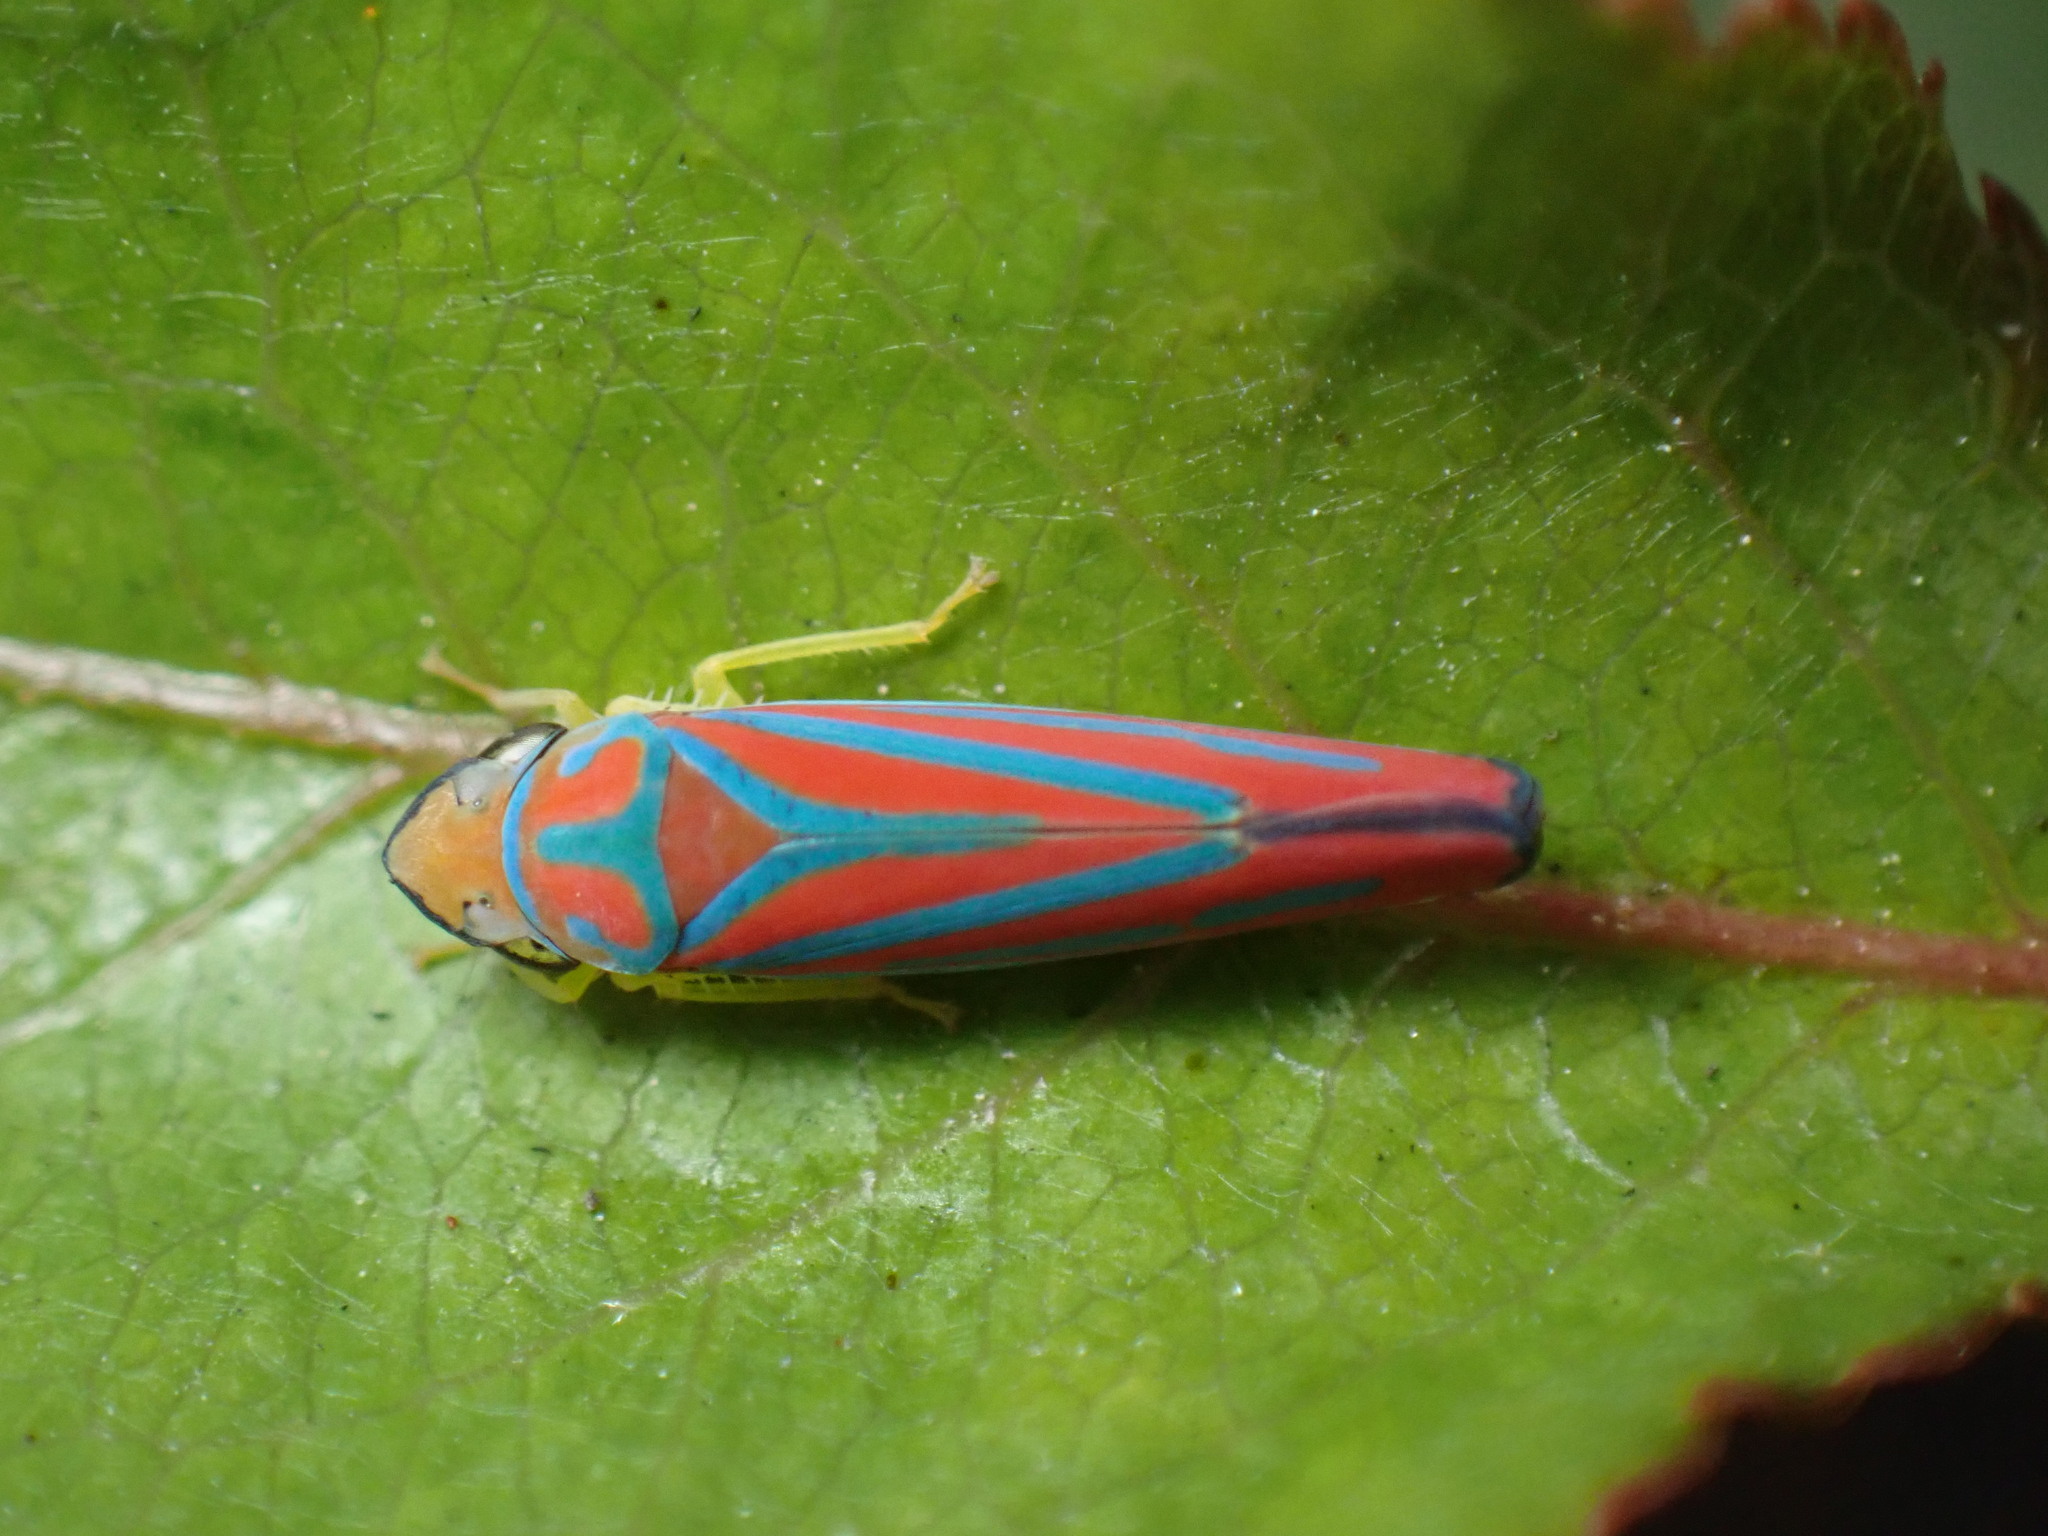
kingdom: Animalia
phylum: Arthropoda
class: Insecta
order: Hemiptera
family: Cicadellidae
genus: Graphocephala
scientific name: Graphocephala coccinea
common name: Candy-striped leafhopper
